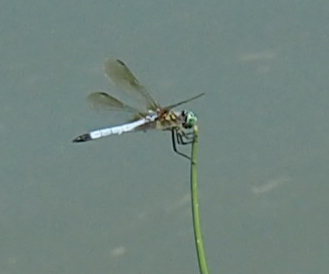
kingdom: Animalia
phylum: Arthropoda
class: Insecta
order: Odonata
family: Libellulidae
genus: Pachydiplax
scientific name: Pachydiplax longipennis
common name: Blue dasher
